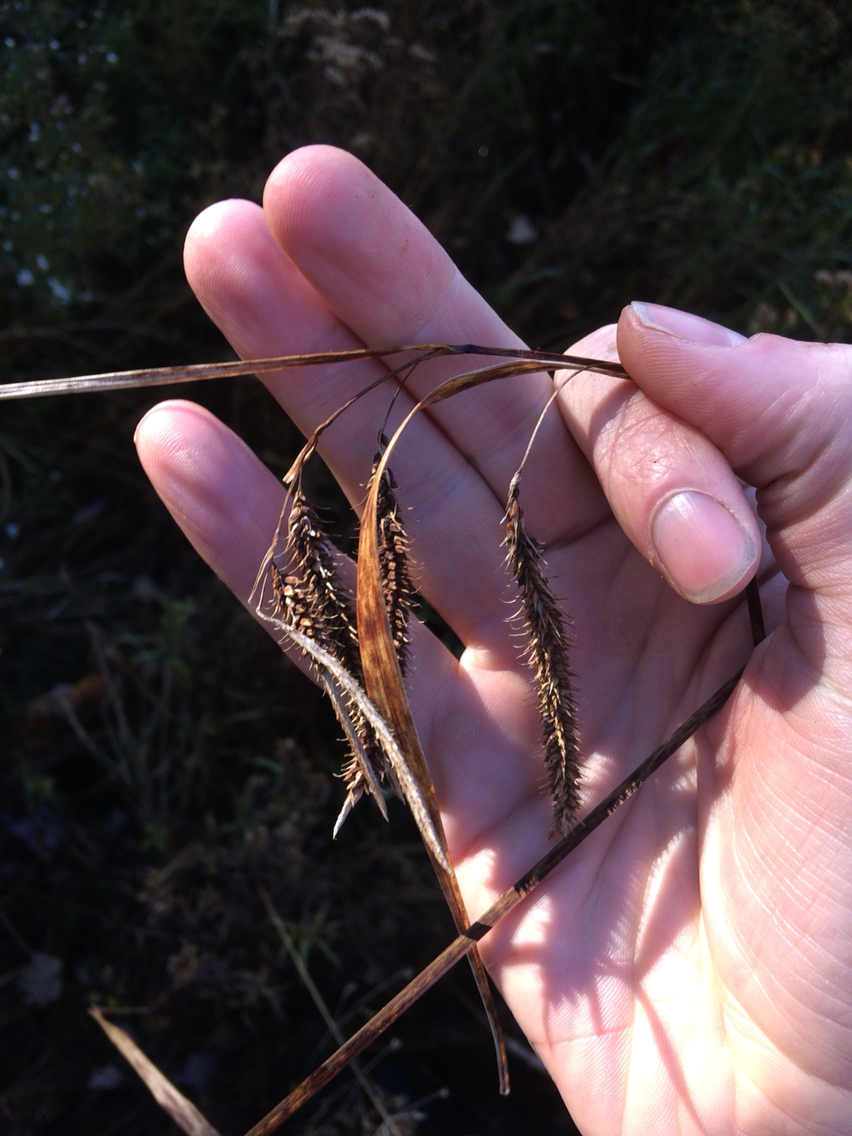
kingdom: Plantae
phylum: Tracheophyta
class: Liliopsida
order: Poales
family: Cyperaceae
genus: Carex
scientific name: Carex crinita
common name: Fringed sedge
